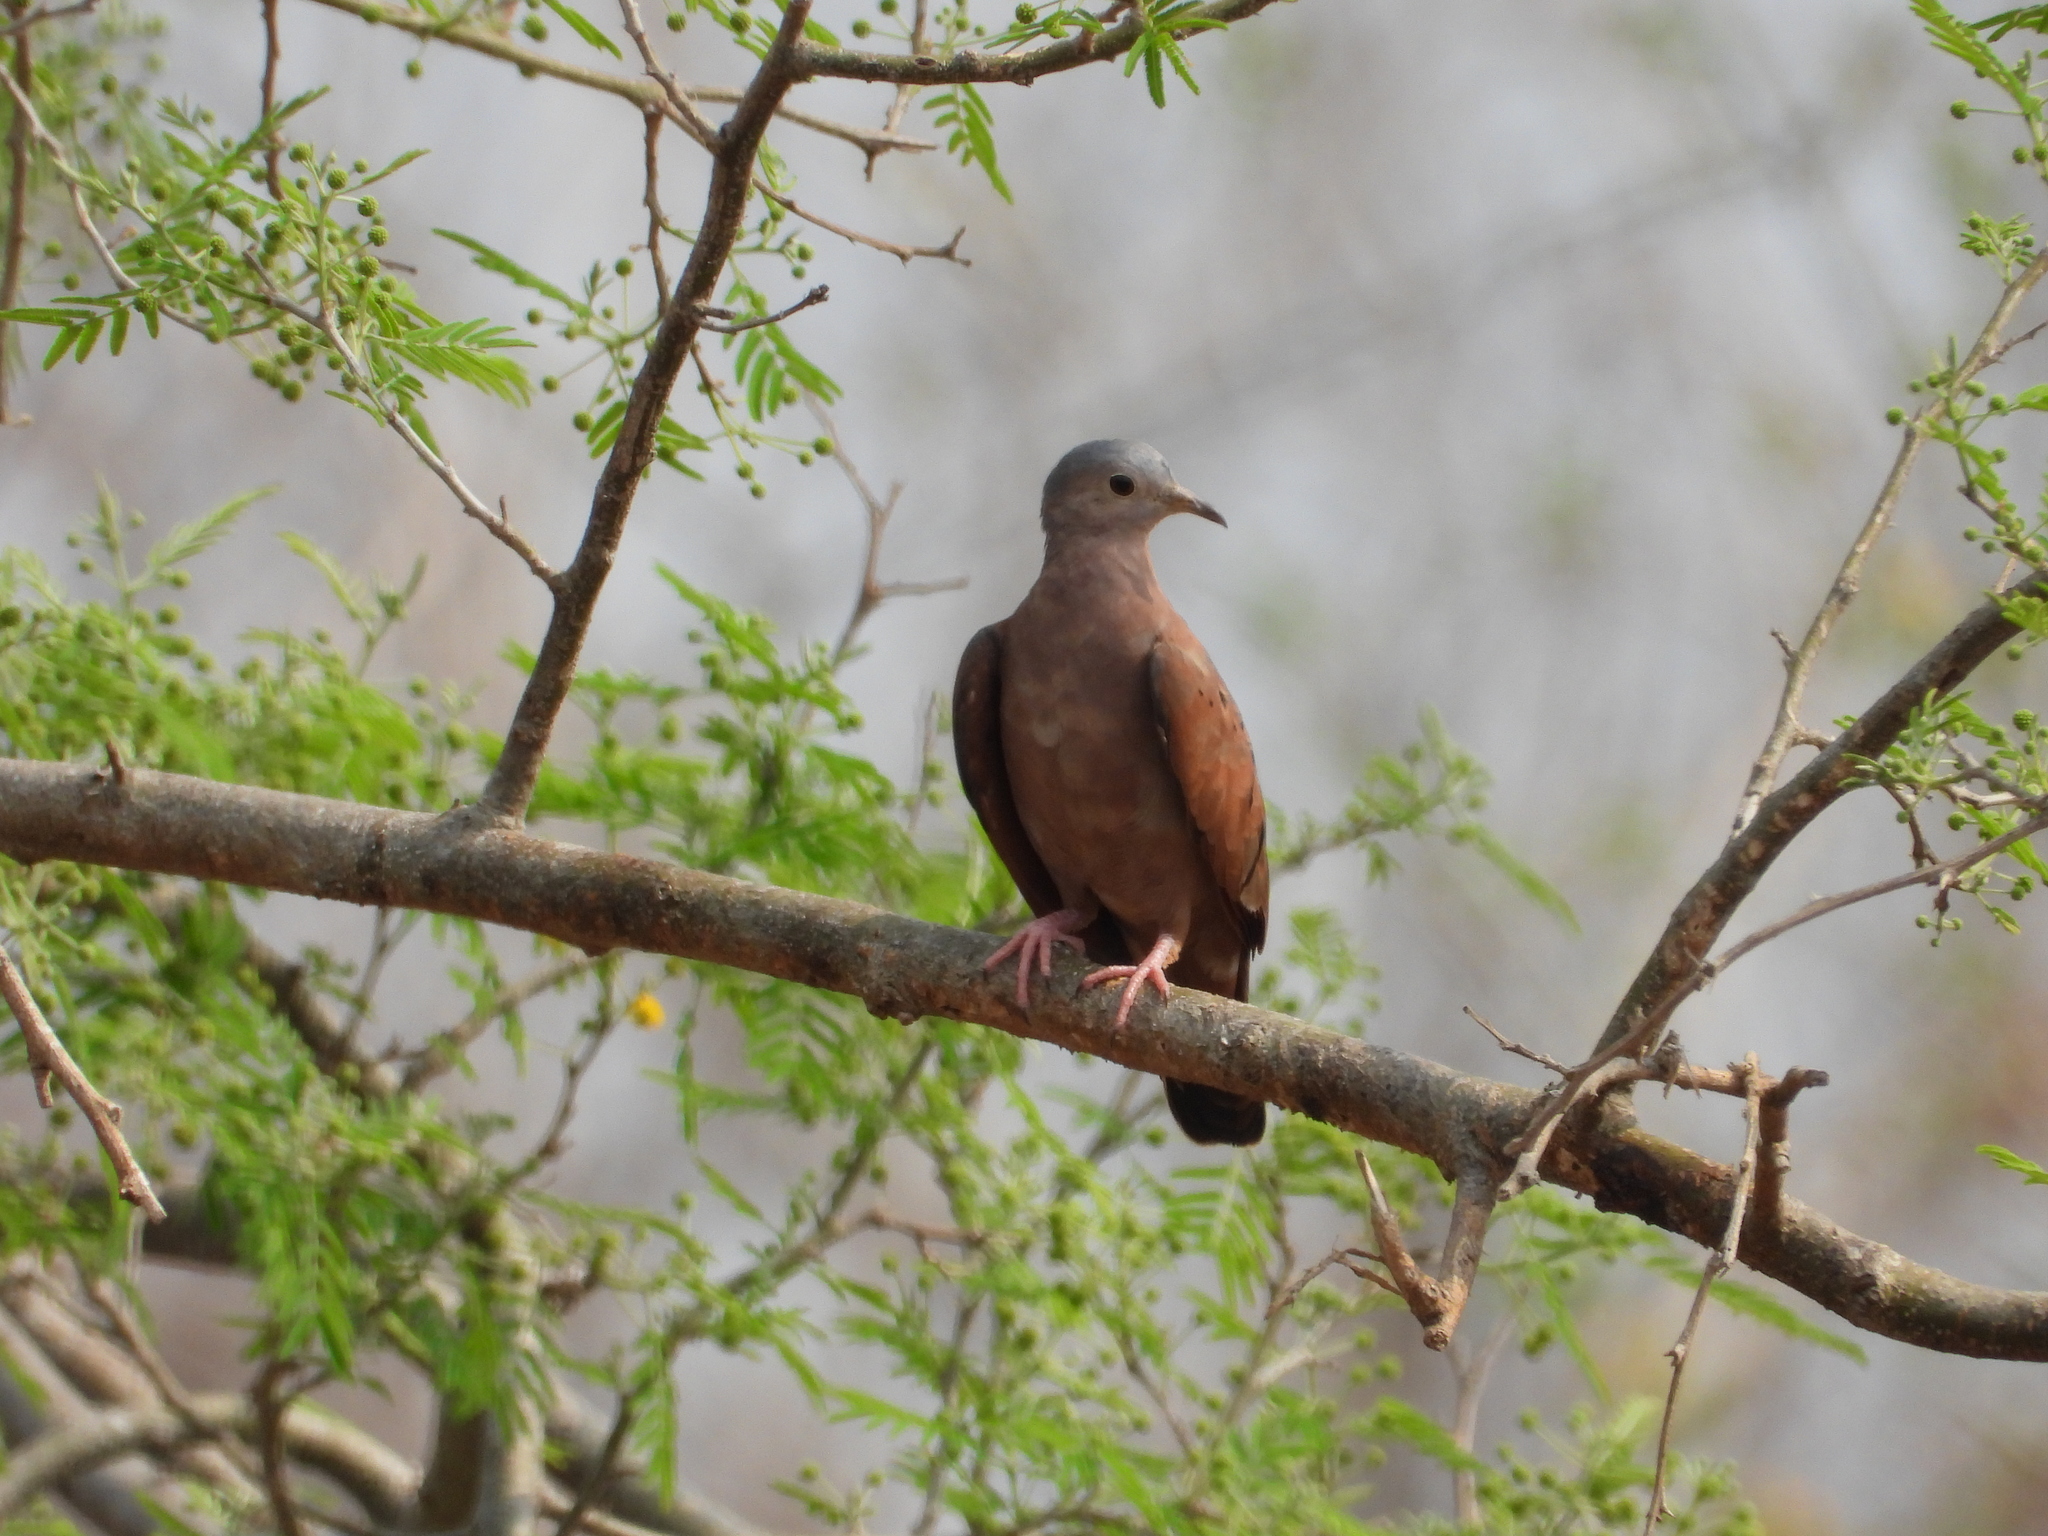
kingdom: Animalia
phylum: Chordata
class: Aves
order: Columbiformes
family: Columbidae
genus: Columbina
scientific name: Columbina talpacoti
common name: Ruddy ground dove
